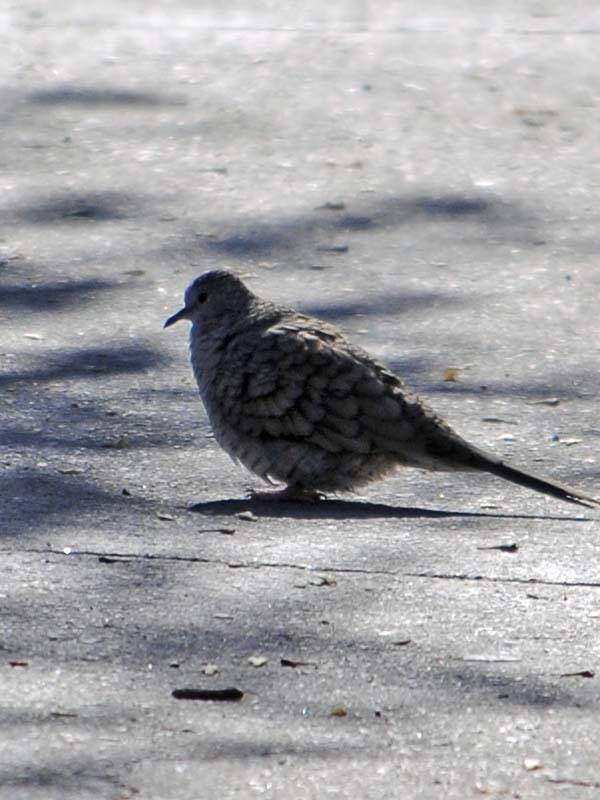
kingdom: Animalia
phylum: Chordata
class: Aves
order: Columbiformes
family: Columbidae
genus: Columbina
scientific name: Columbina inca
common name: Inca dove
